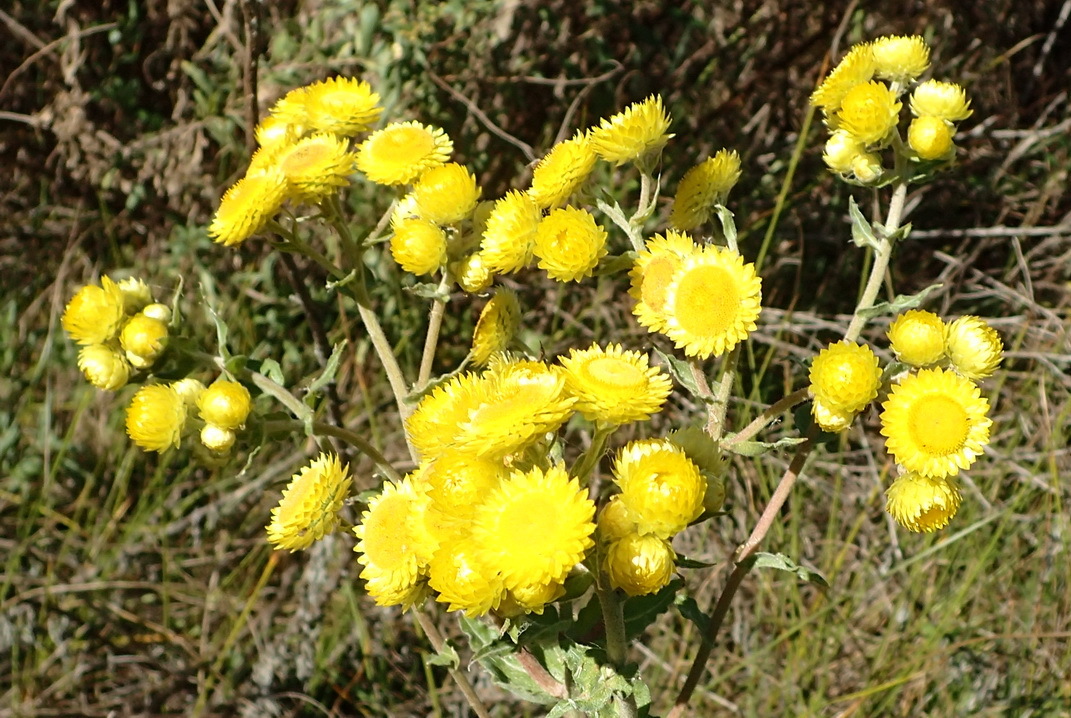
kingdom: Plantae
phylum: Tracheophyta
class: Magnoliopsida
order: Asterales
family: Asteraceae
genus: Helichrysum
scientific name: Helichrysum foetidum
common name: Stinking everlasting
